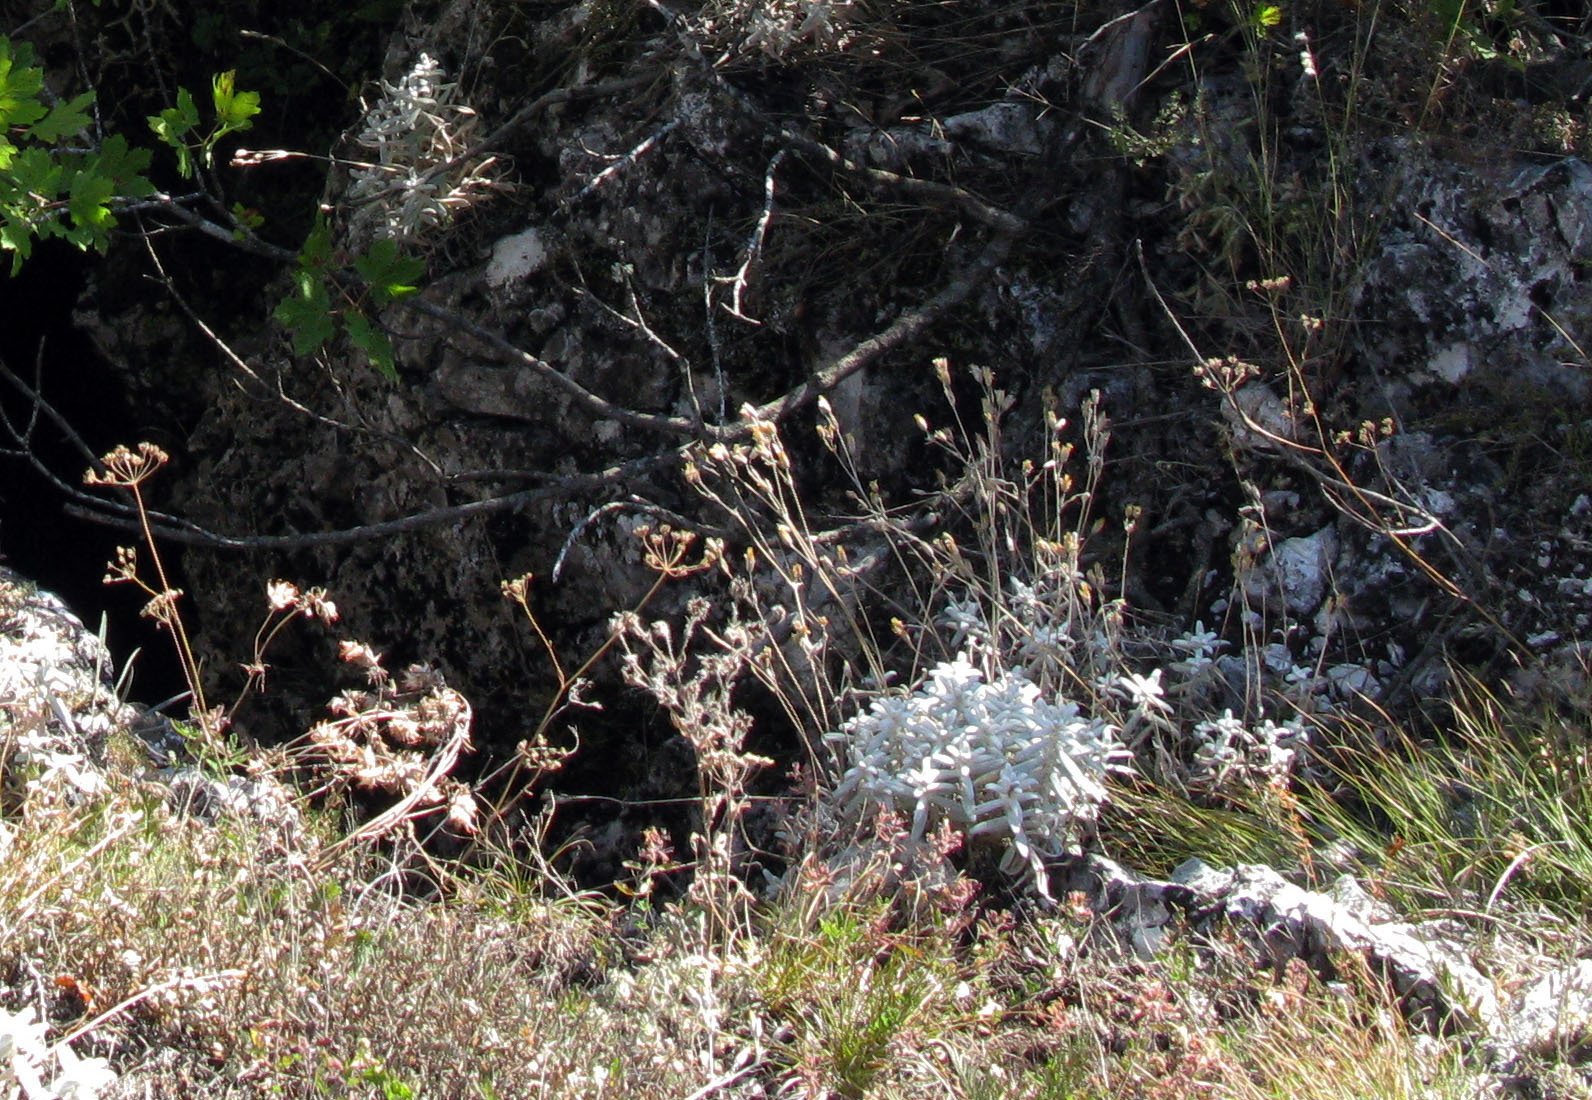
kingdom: Plantae
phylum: Tracheophyta
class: Magnoliopsida
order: Caryophyllales
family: Caryophyllaceae
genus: Cerastium
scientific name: Cerastium biebersteinii
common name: Snow-in-summer
